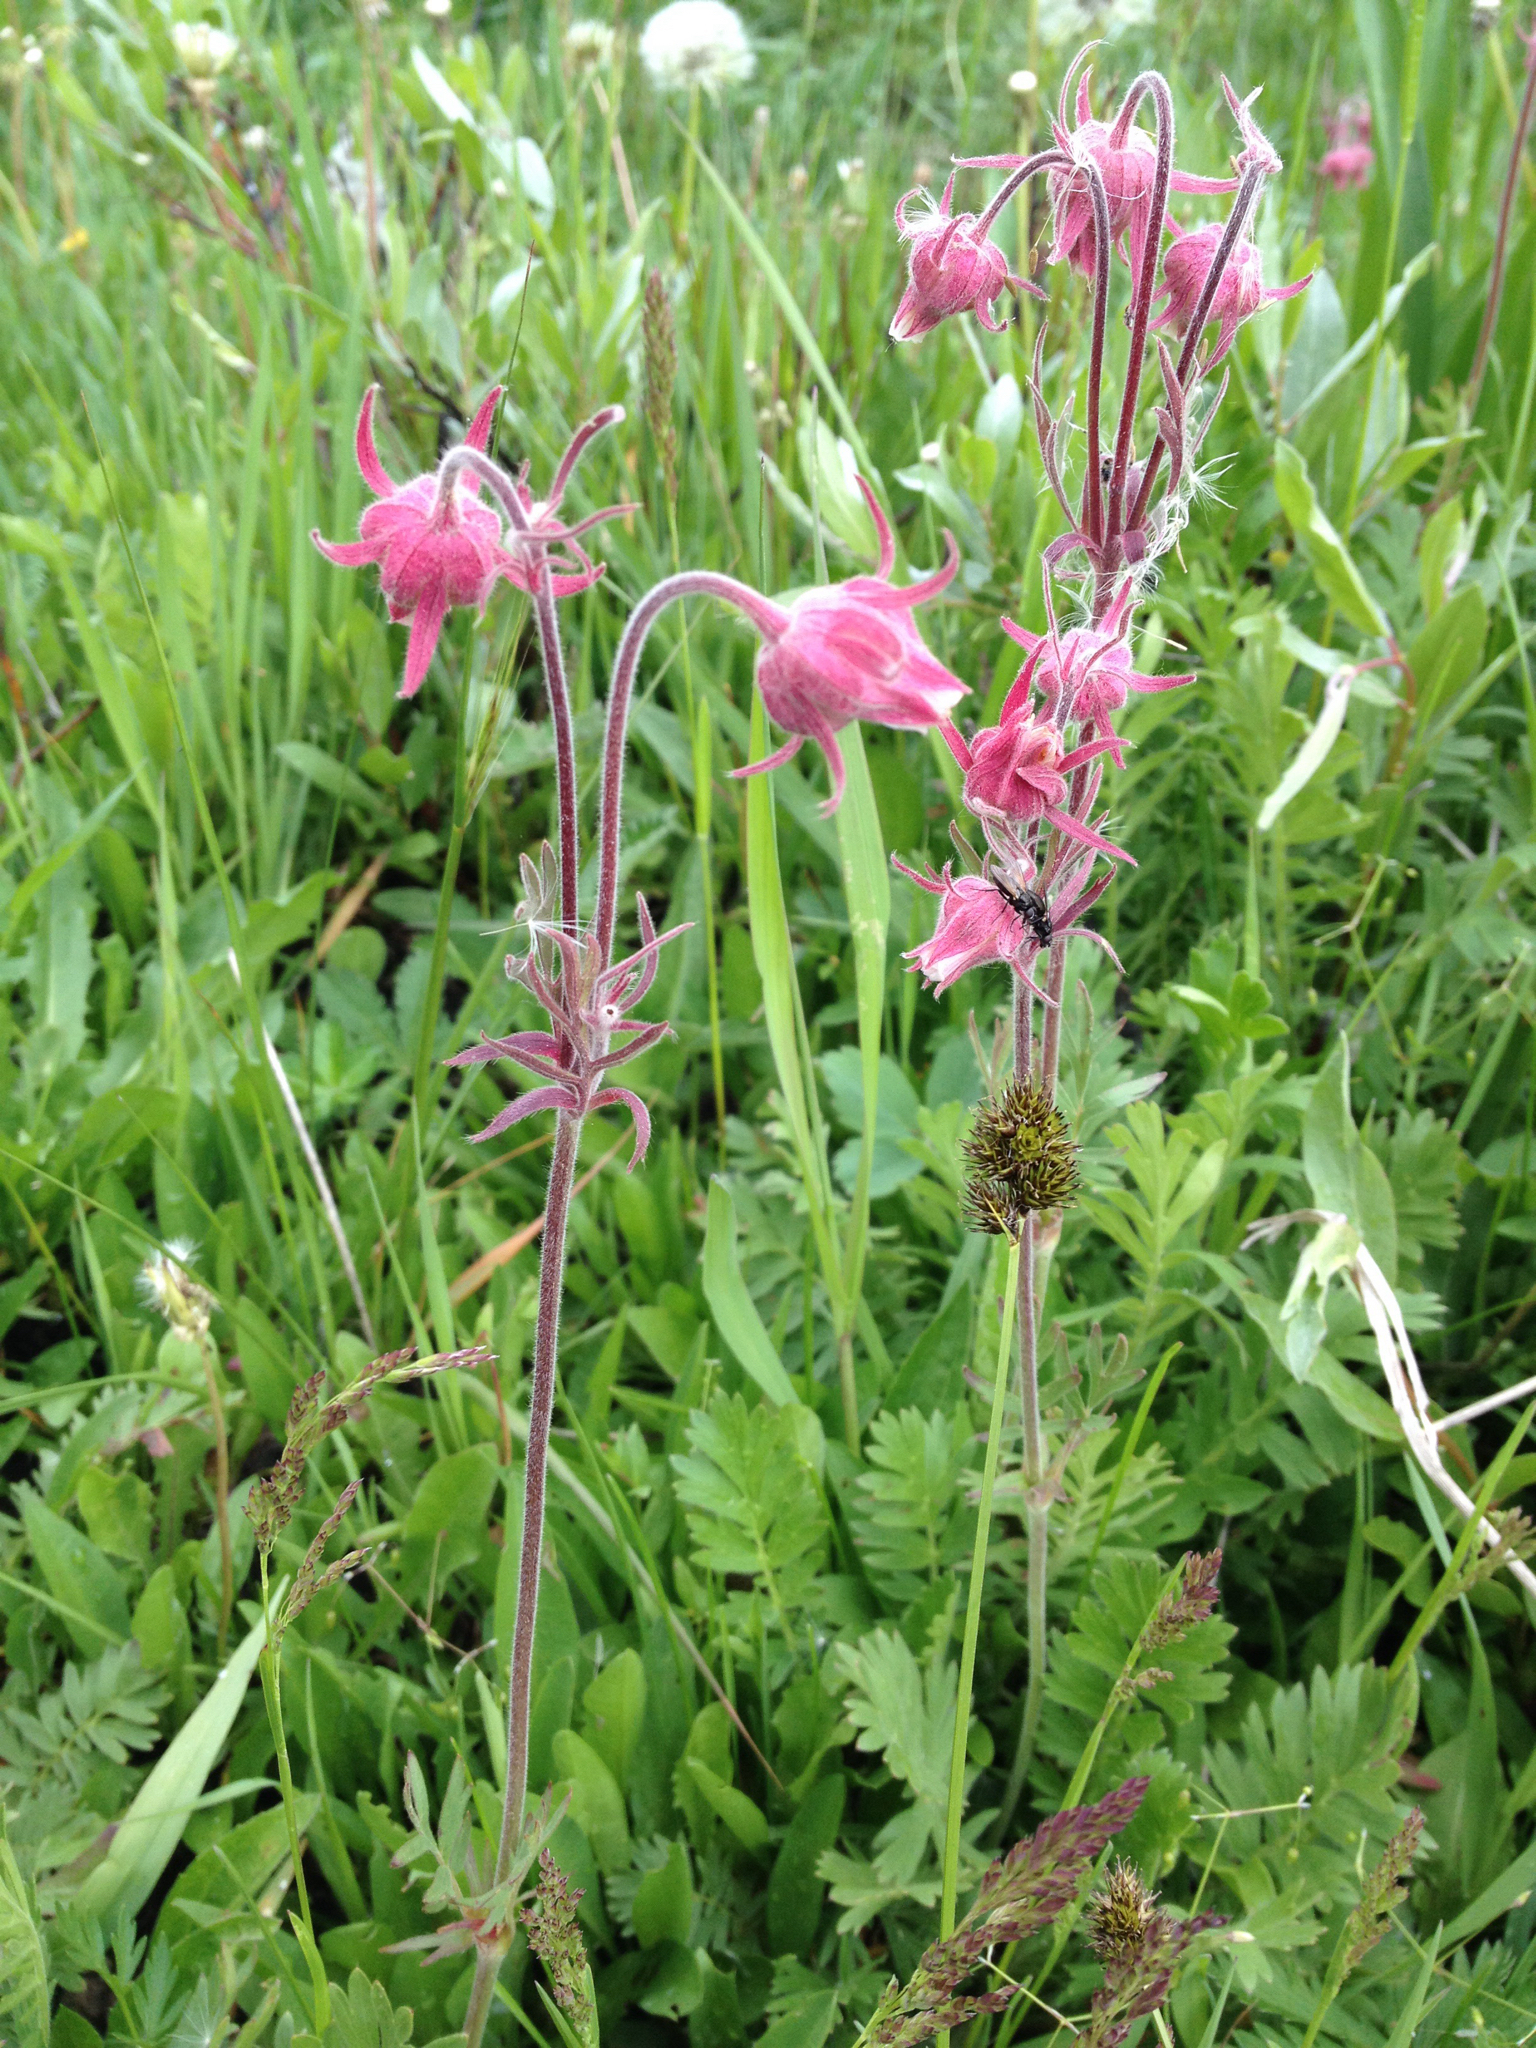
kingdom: Plantae
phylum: Tracheophyta
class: Magnoliopsida
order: Rosales
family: Rosaceae
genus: Geum
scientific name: Geum triflorum
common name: Old man's whiskers
